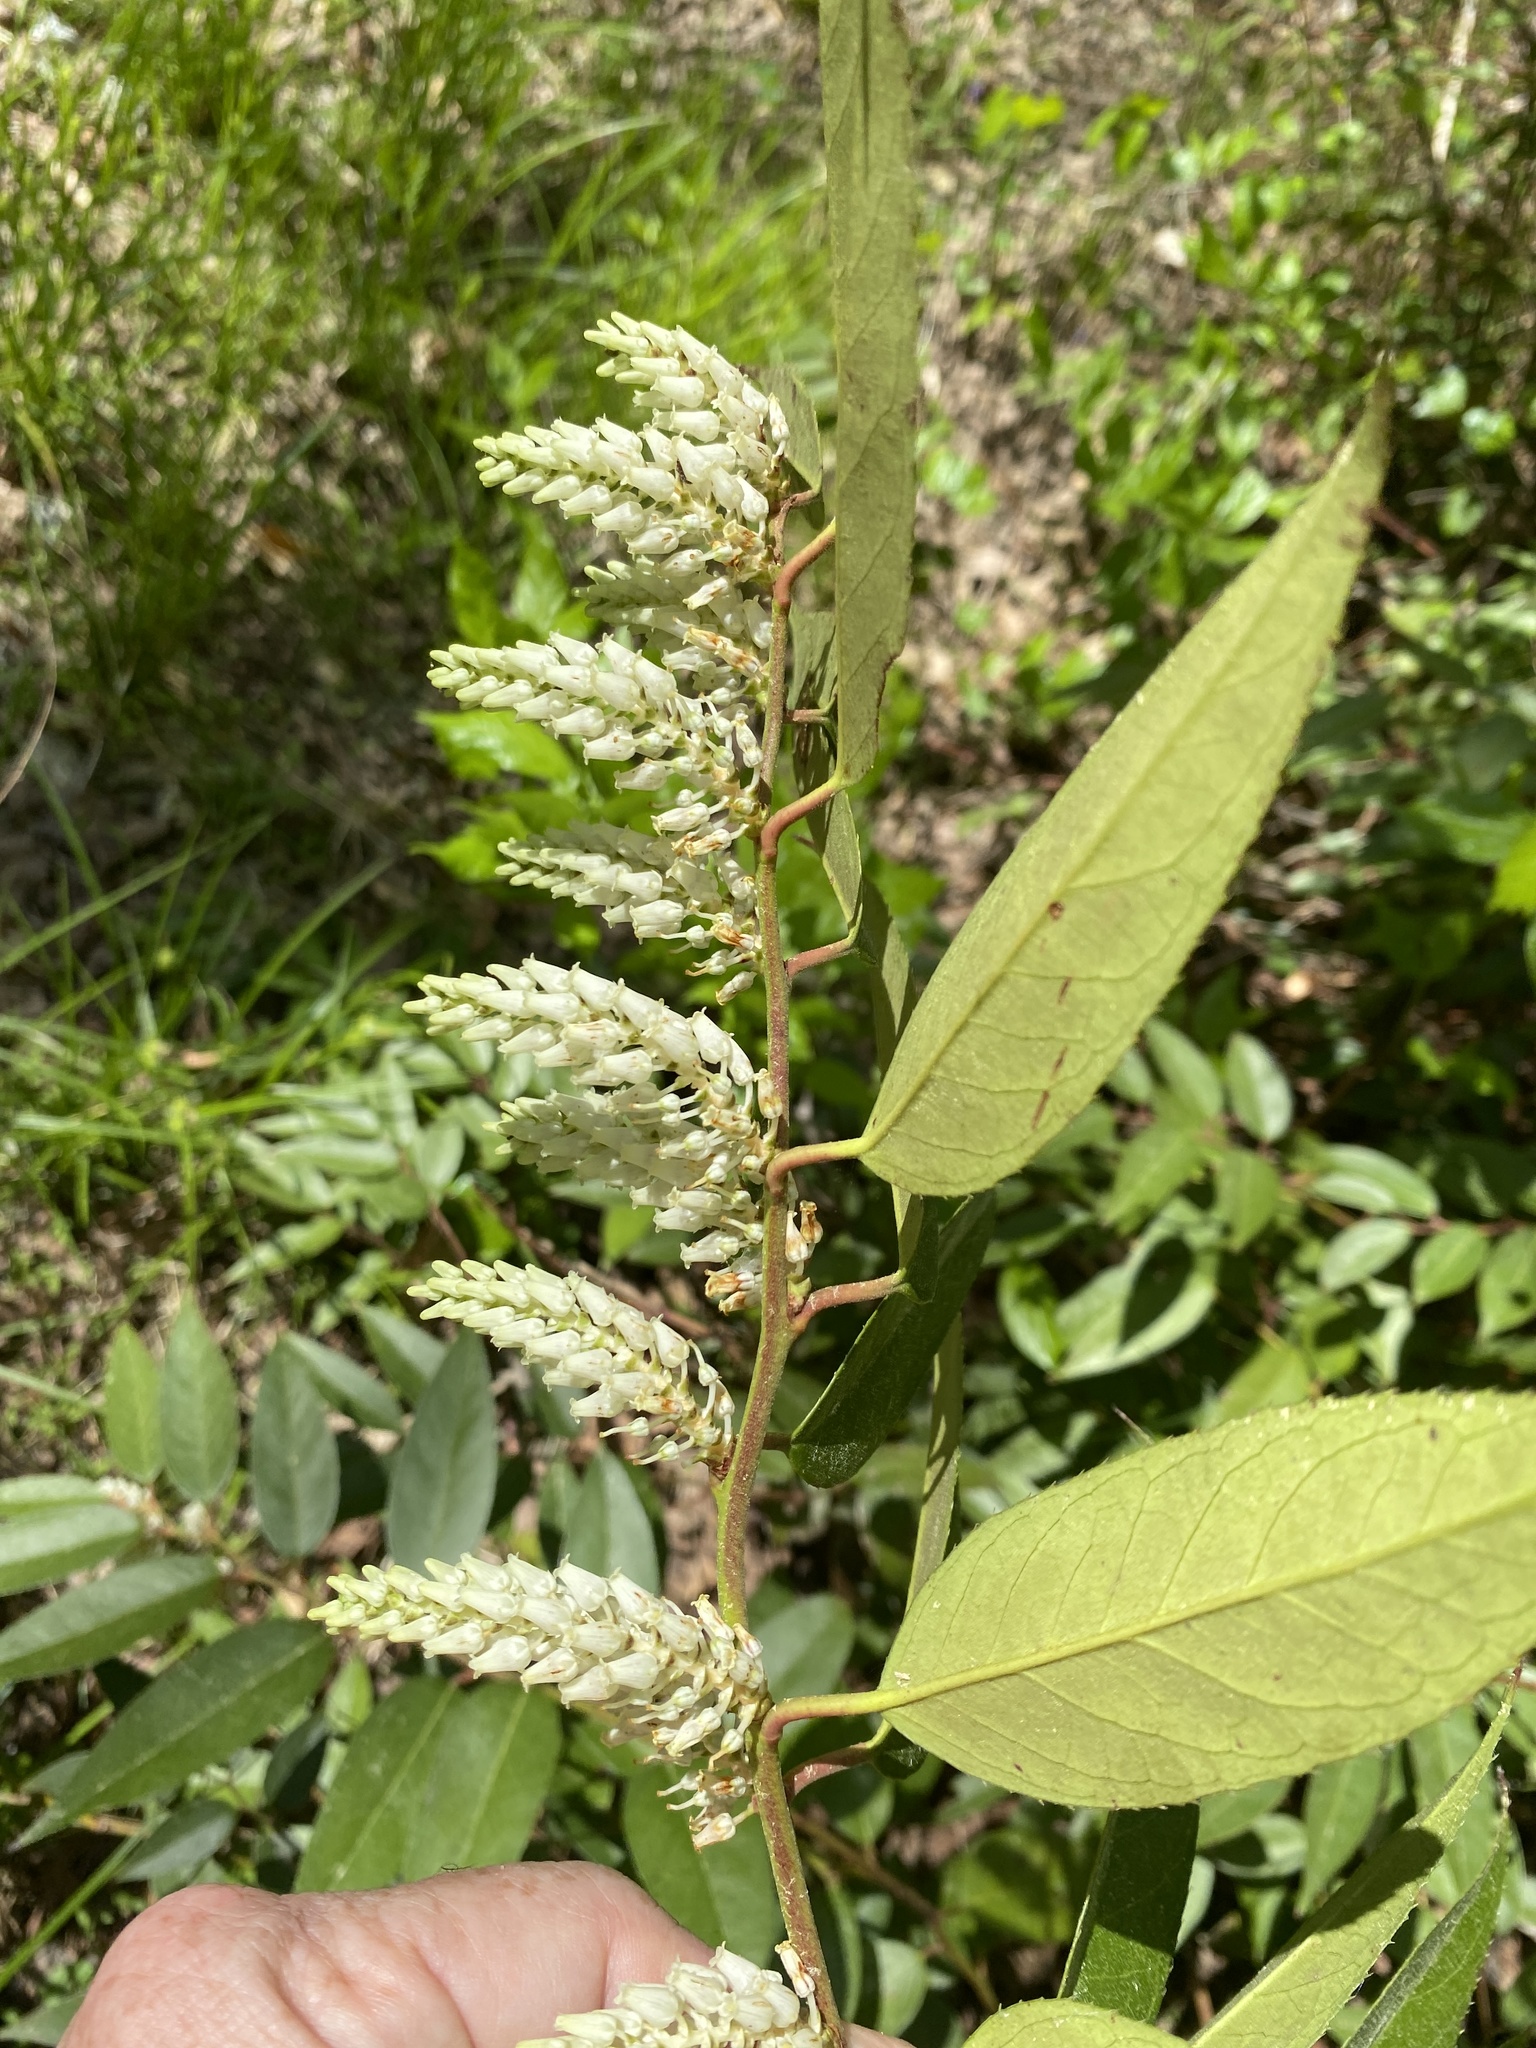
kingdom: Plantae
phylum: Tracheophyta
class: Magnoliopsida
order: Ericales
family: Ericaceae
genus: Leucothoe
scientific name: Leucothoe fontanesiana
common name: Fetterbush
